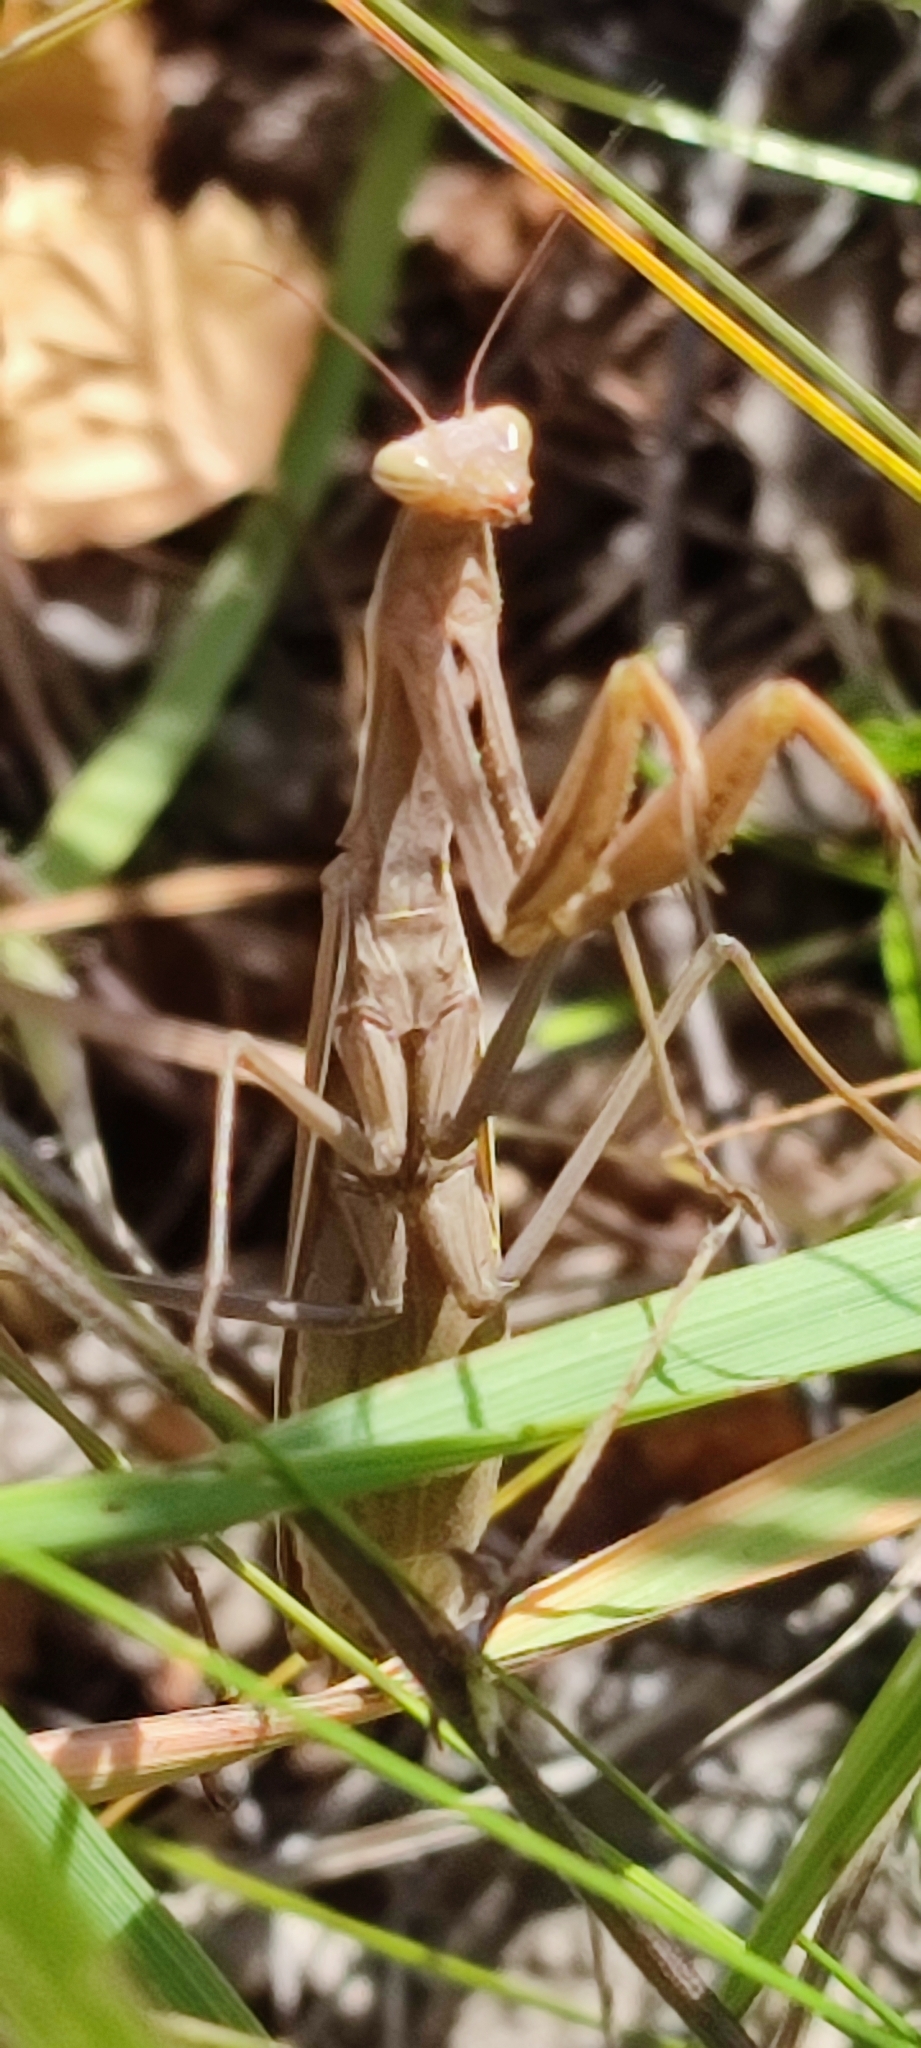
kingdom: Animalia
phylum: Arthropoda
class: Insecta
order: Mantodea
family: Mantidae
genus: Mantis
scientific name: Mantis religiosa
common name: Praying mantis
